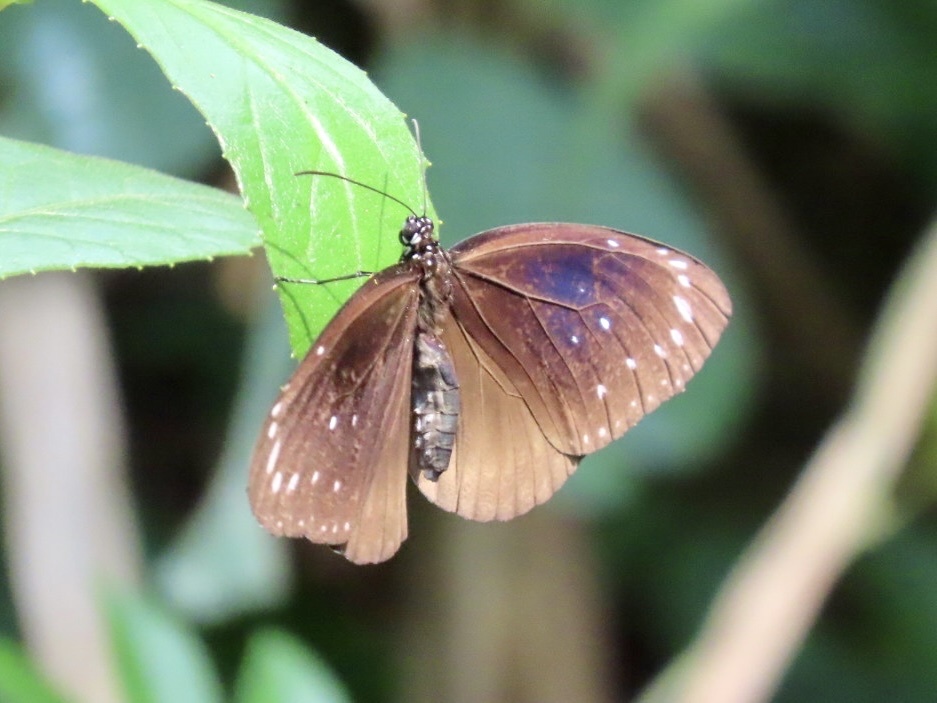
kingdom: Animalia
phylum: Arthropoda
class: Insecta
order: Lepidoptera
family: Nymphalidae
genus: Euploea
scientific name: Euploea core
